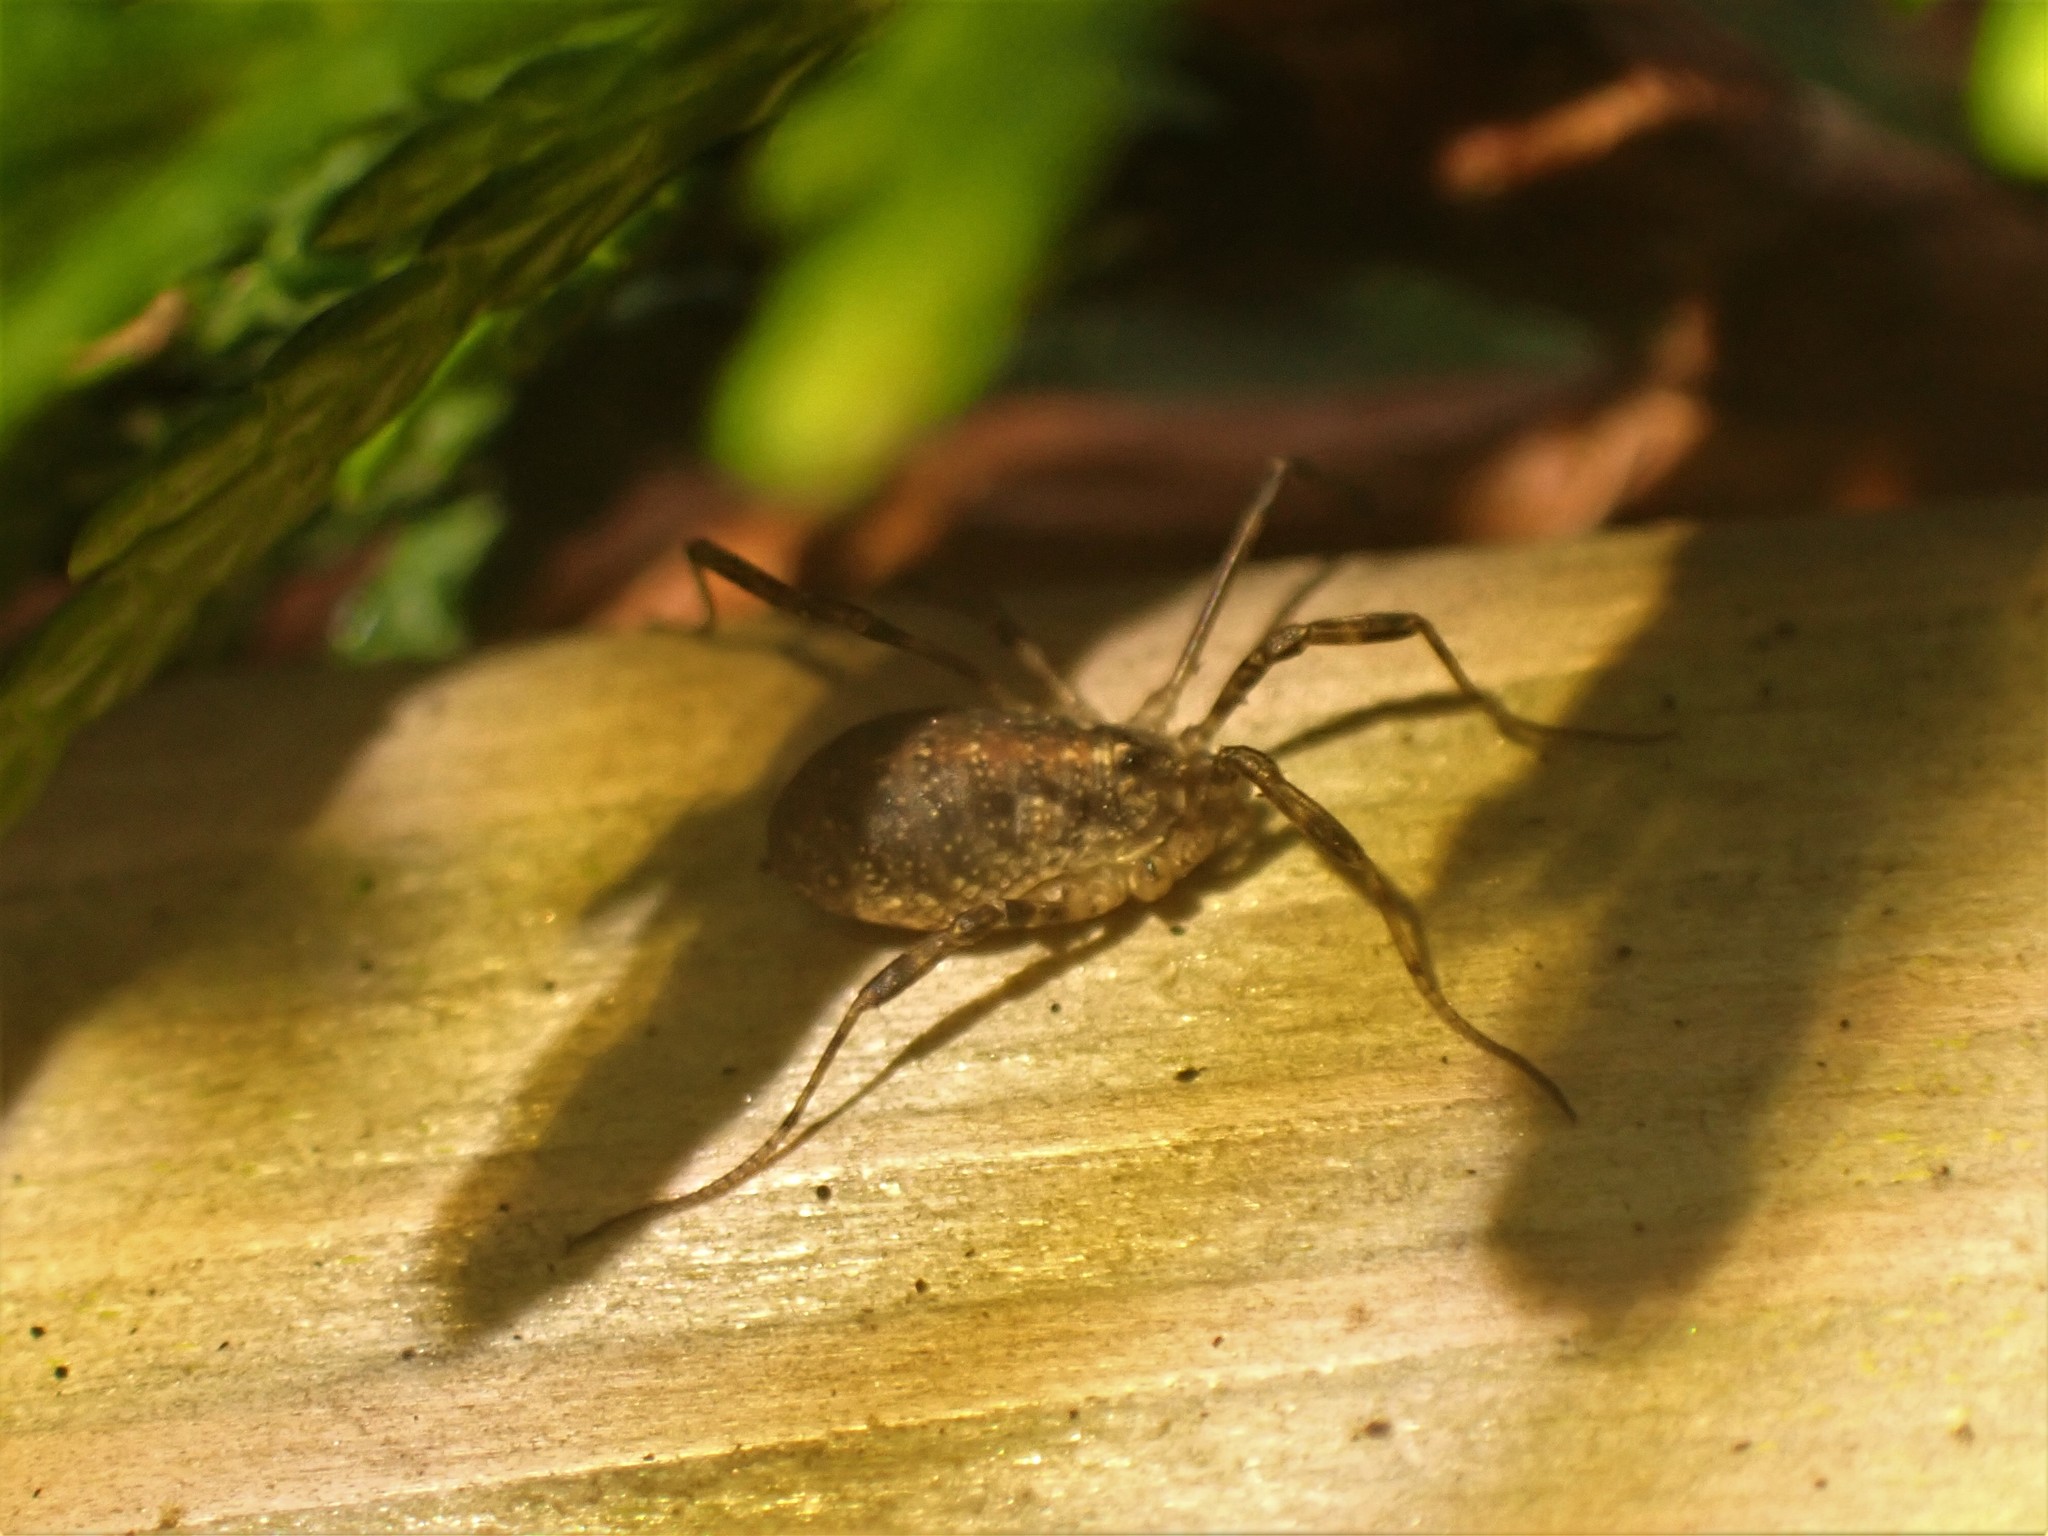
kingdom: Animalia
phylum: Arthropoda
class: Arachnida
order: Opiliones
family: Phalangiidae
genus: Paroligolophus
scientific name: Paroligolophus agrestis
